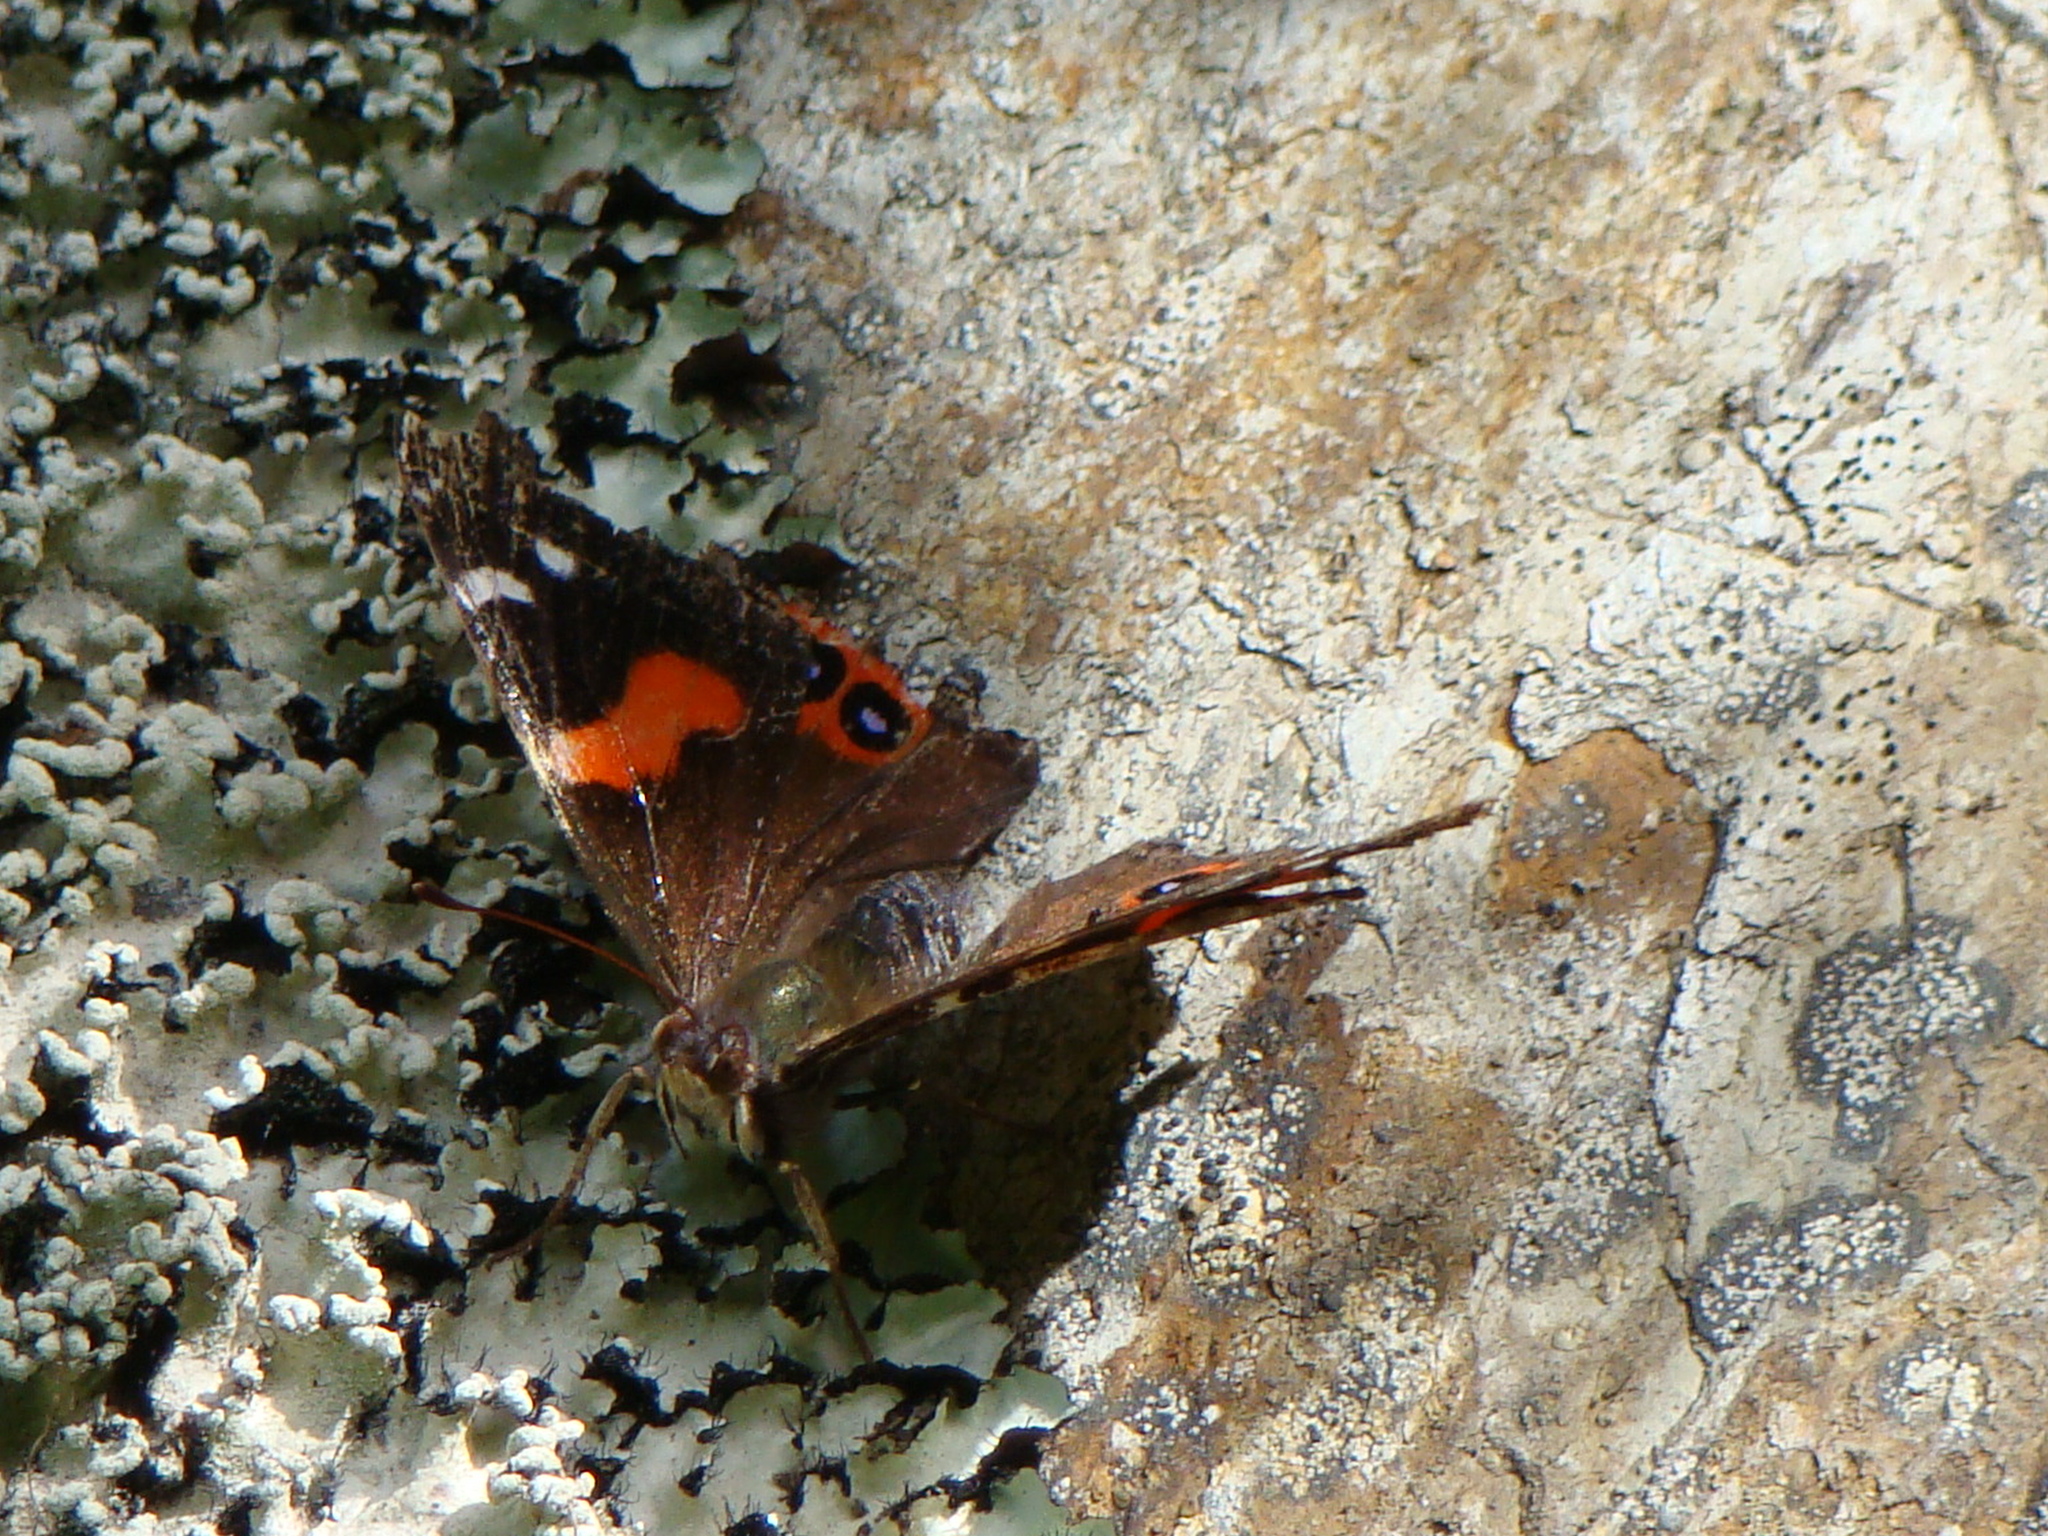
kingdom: Animalia
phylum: Arthropoda
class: Insecta
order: Lepidoptera
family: Nymphalidae
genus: Vanessa
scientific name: Vanessa gonerilla
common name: New zealand red admiral
